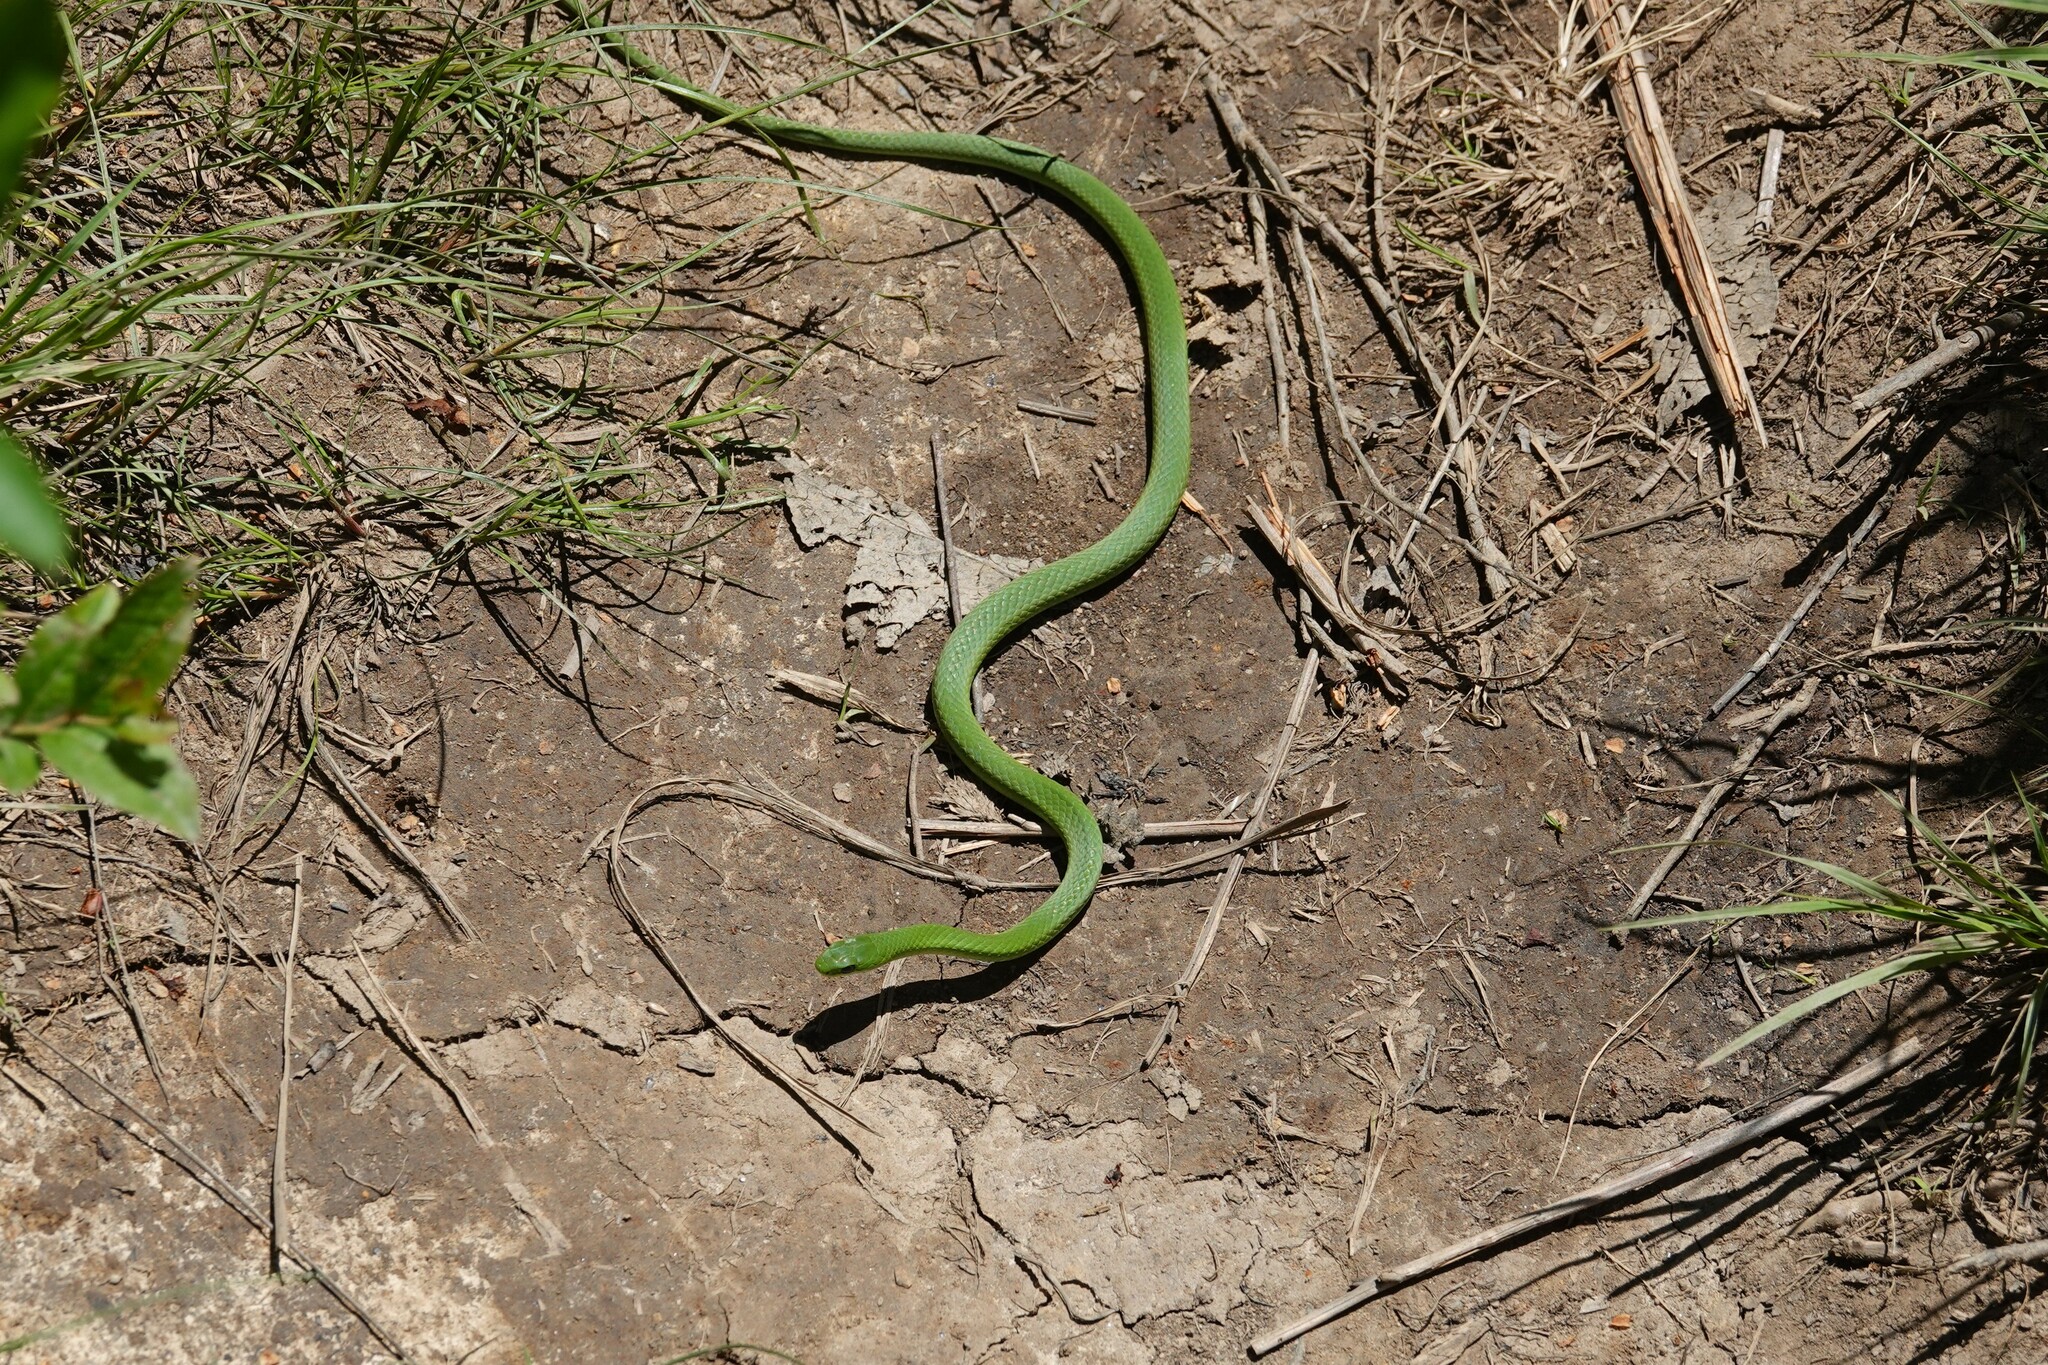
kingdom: Animalia
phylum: Chordata
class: Squamata
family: Colubridae
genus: Opheodrys
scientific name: Opheodrys vernalis
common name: Smooth green snake
